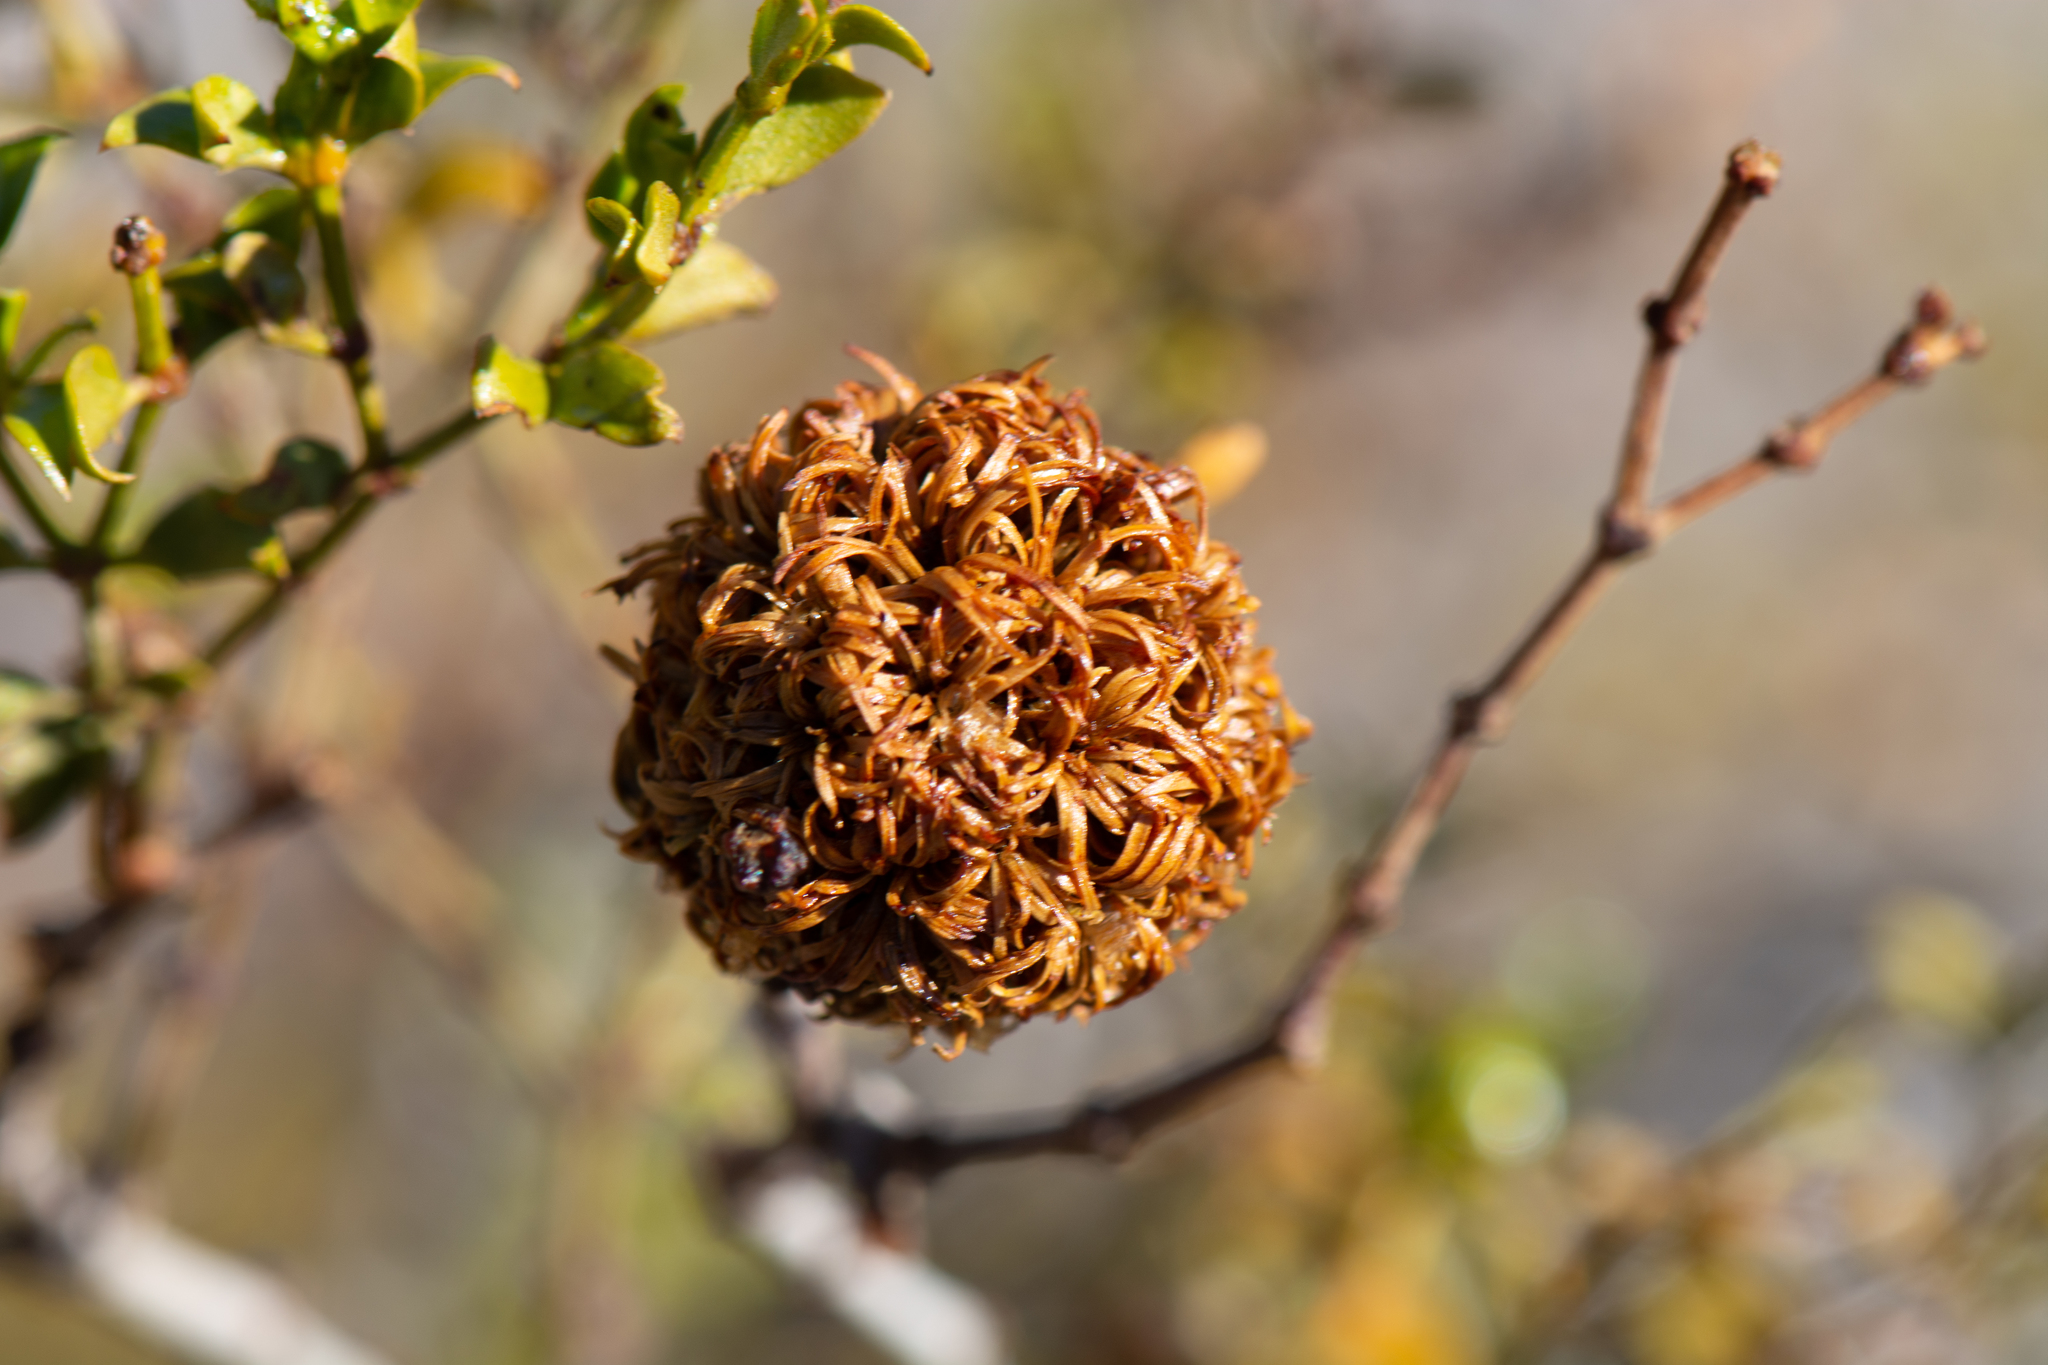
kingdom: Animalia
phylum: Arthropoda
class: Insecta
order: Diptera
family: Cecidomyiidae
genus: Asphondylia
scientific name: Asphondylia auripila
